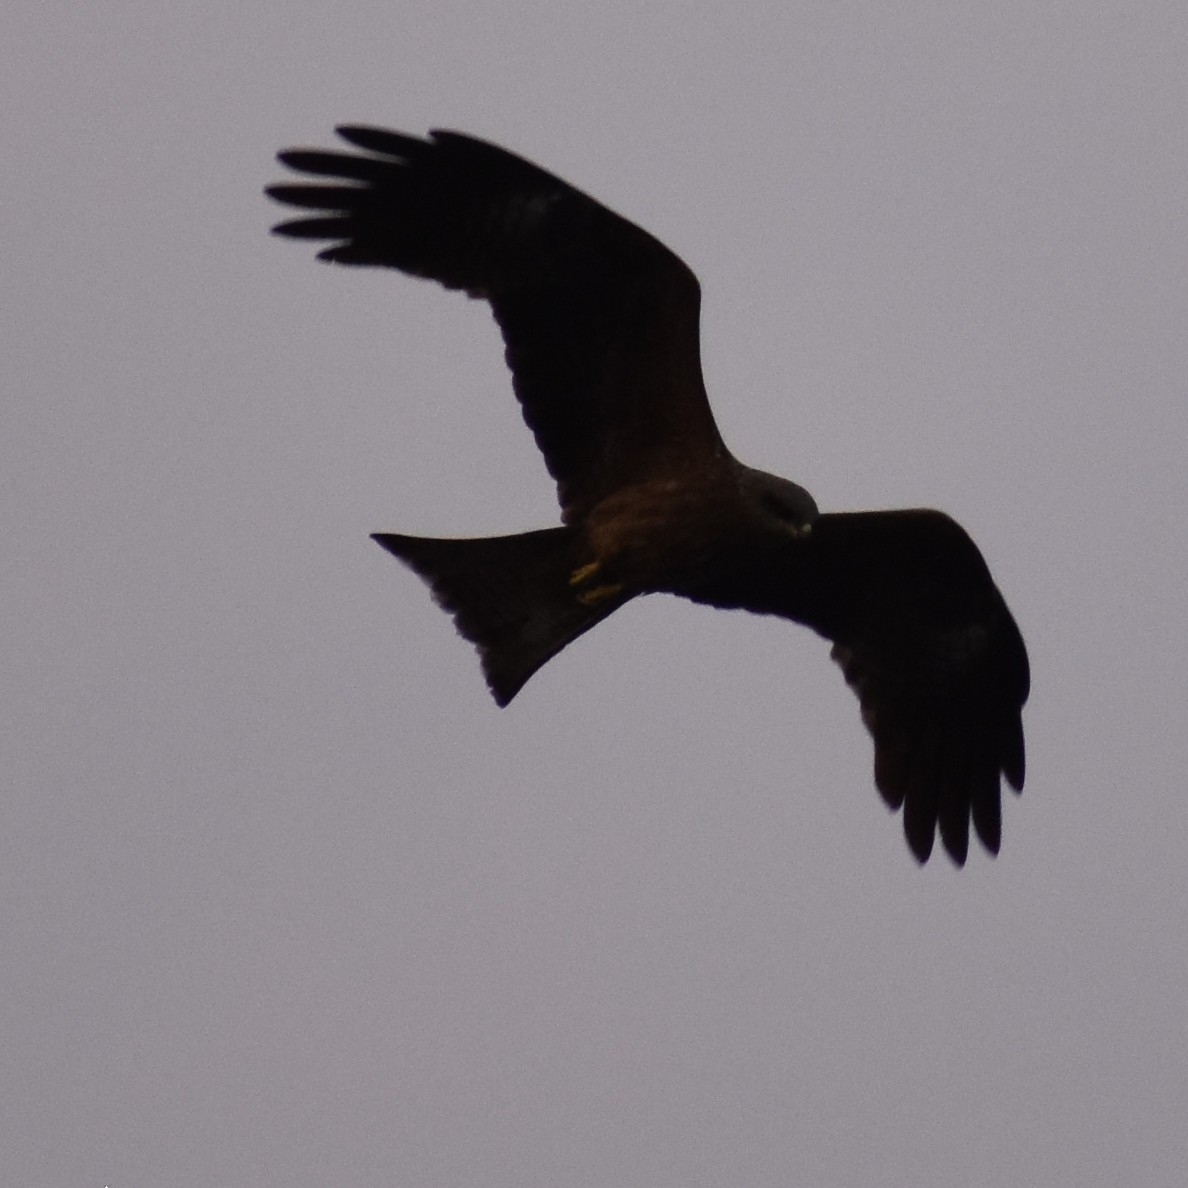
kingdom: Animalia
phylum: Chordata
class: Aves
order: Accipitriformes
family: Accipitridae
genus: Milvus
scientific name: Milvus migrans
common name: Black kite
